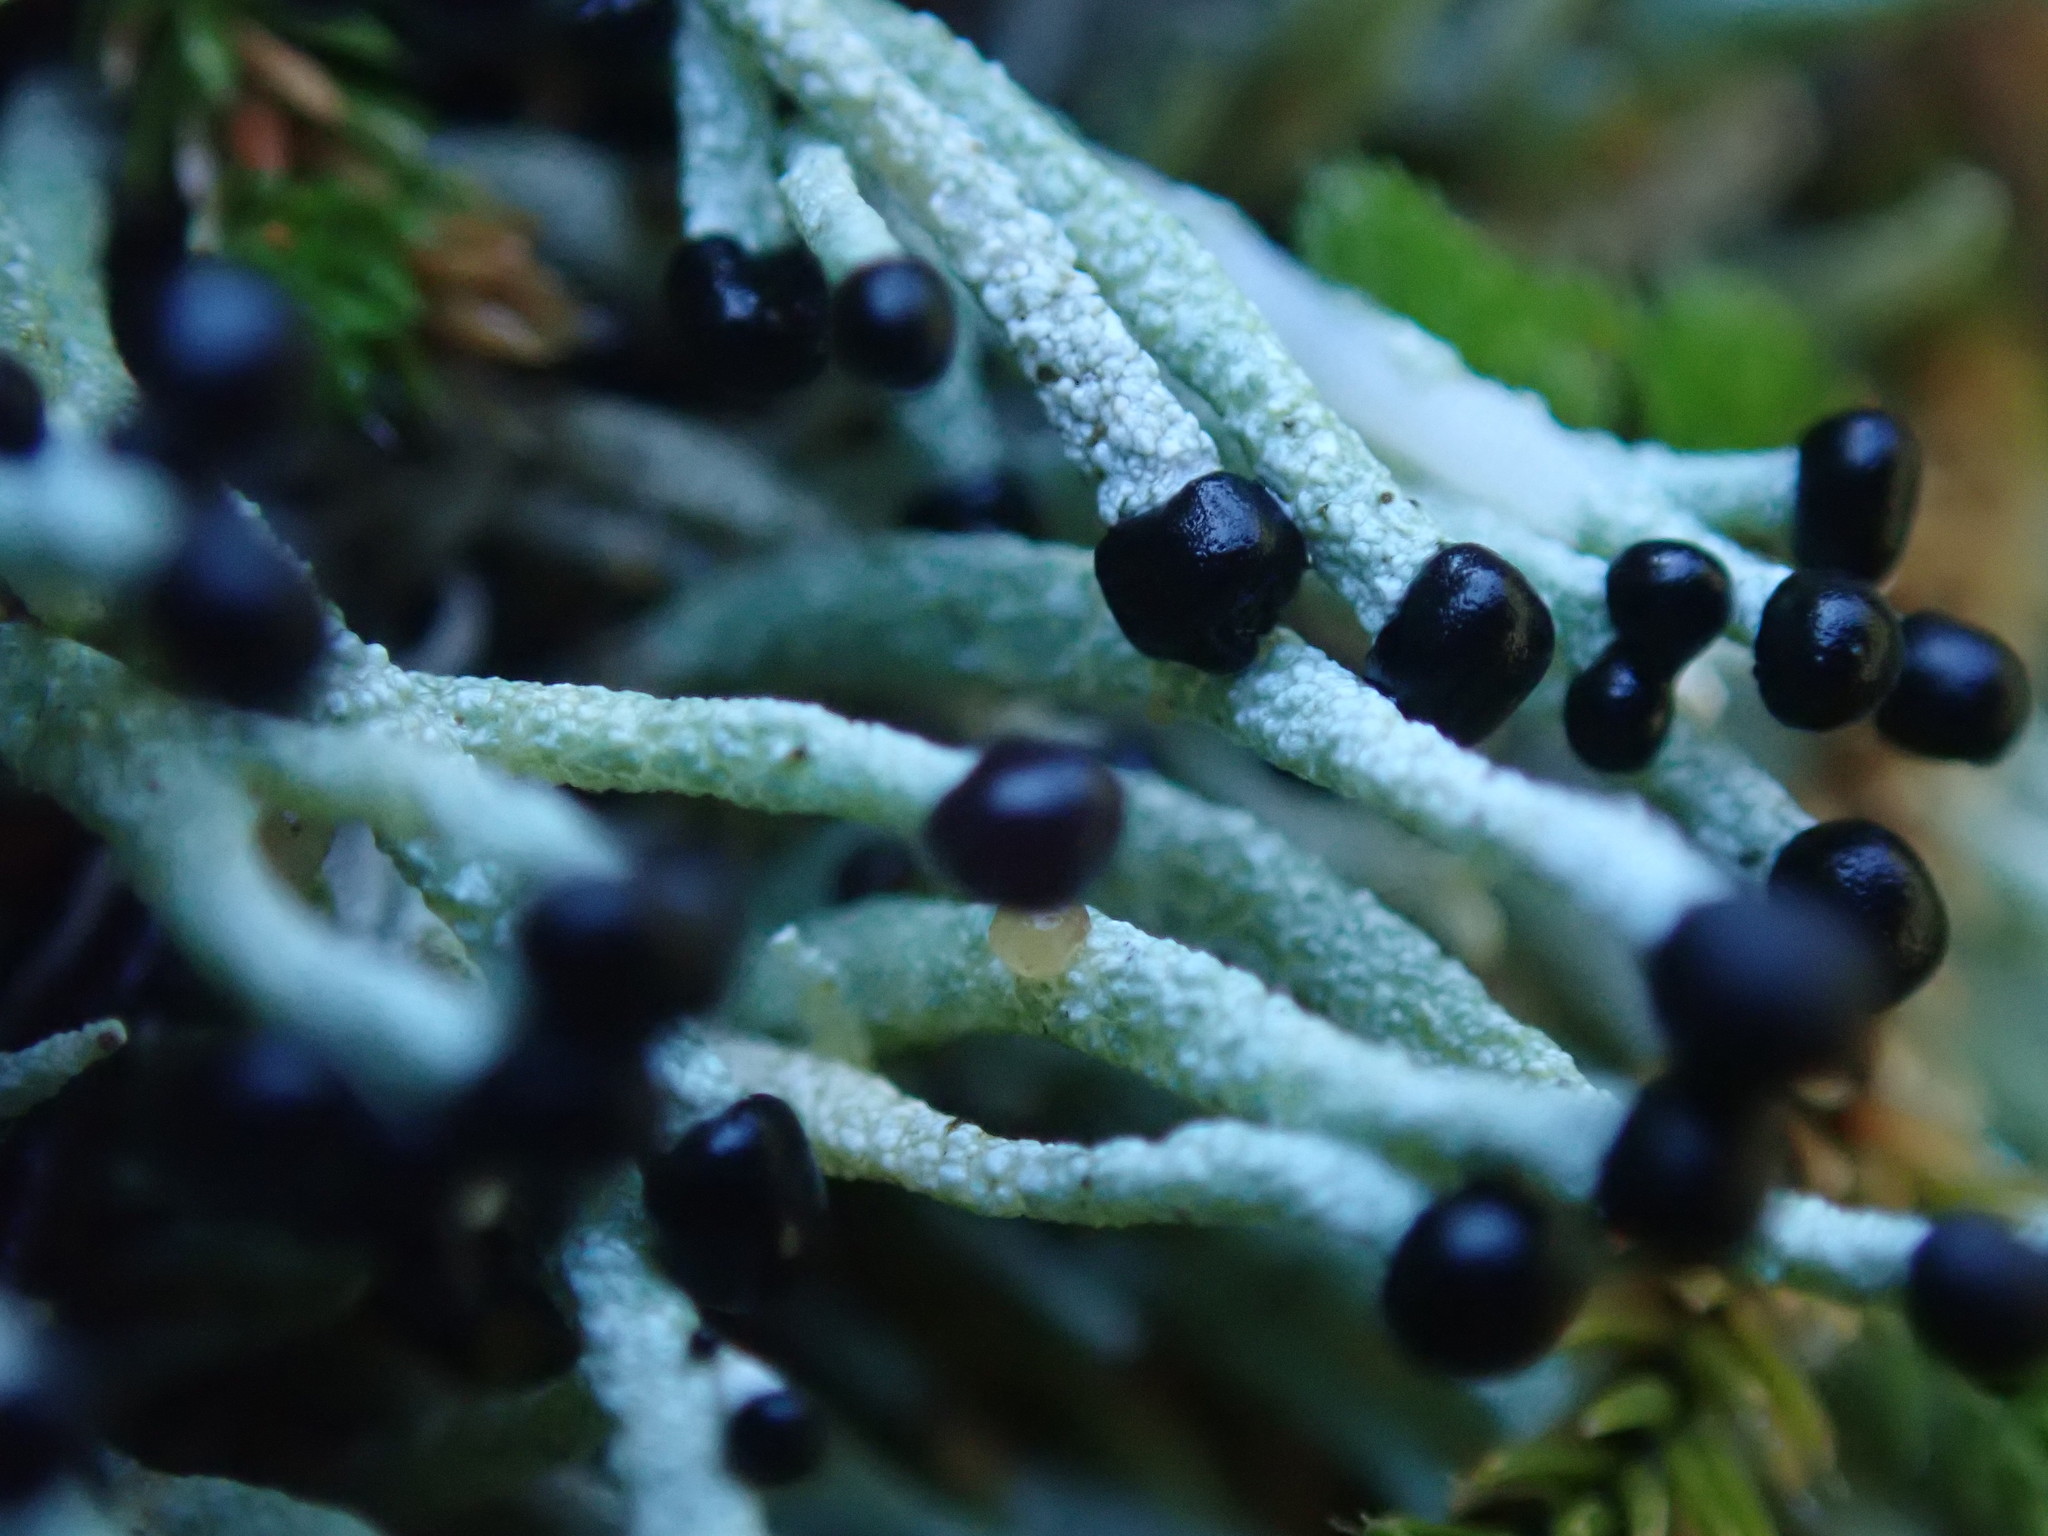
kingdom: Fungi
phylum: Ascomycota
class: Lecanoromycetes
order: Lecanorales
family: Cladoniaceae
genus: Pilophorus
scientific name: Pilophorus acicularis
